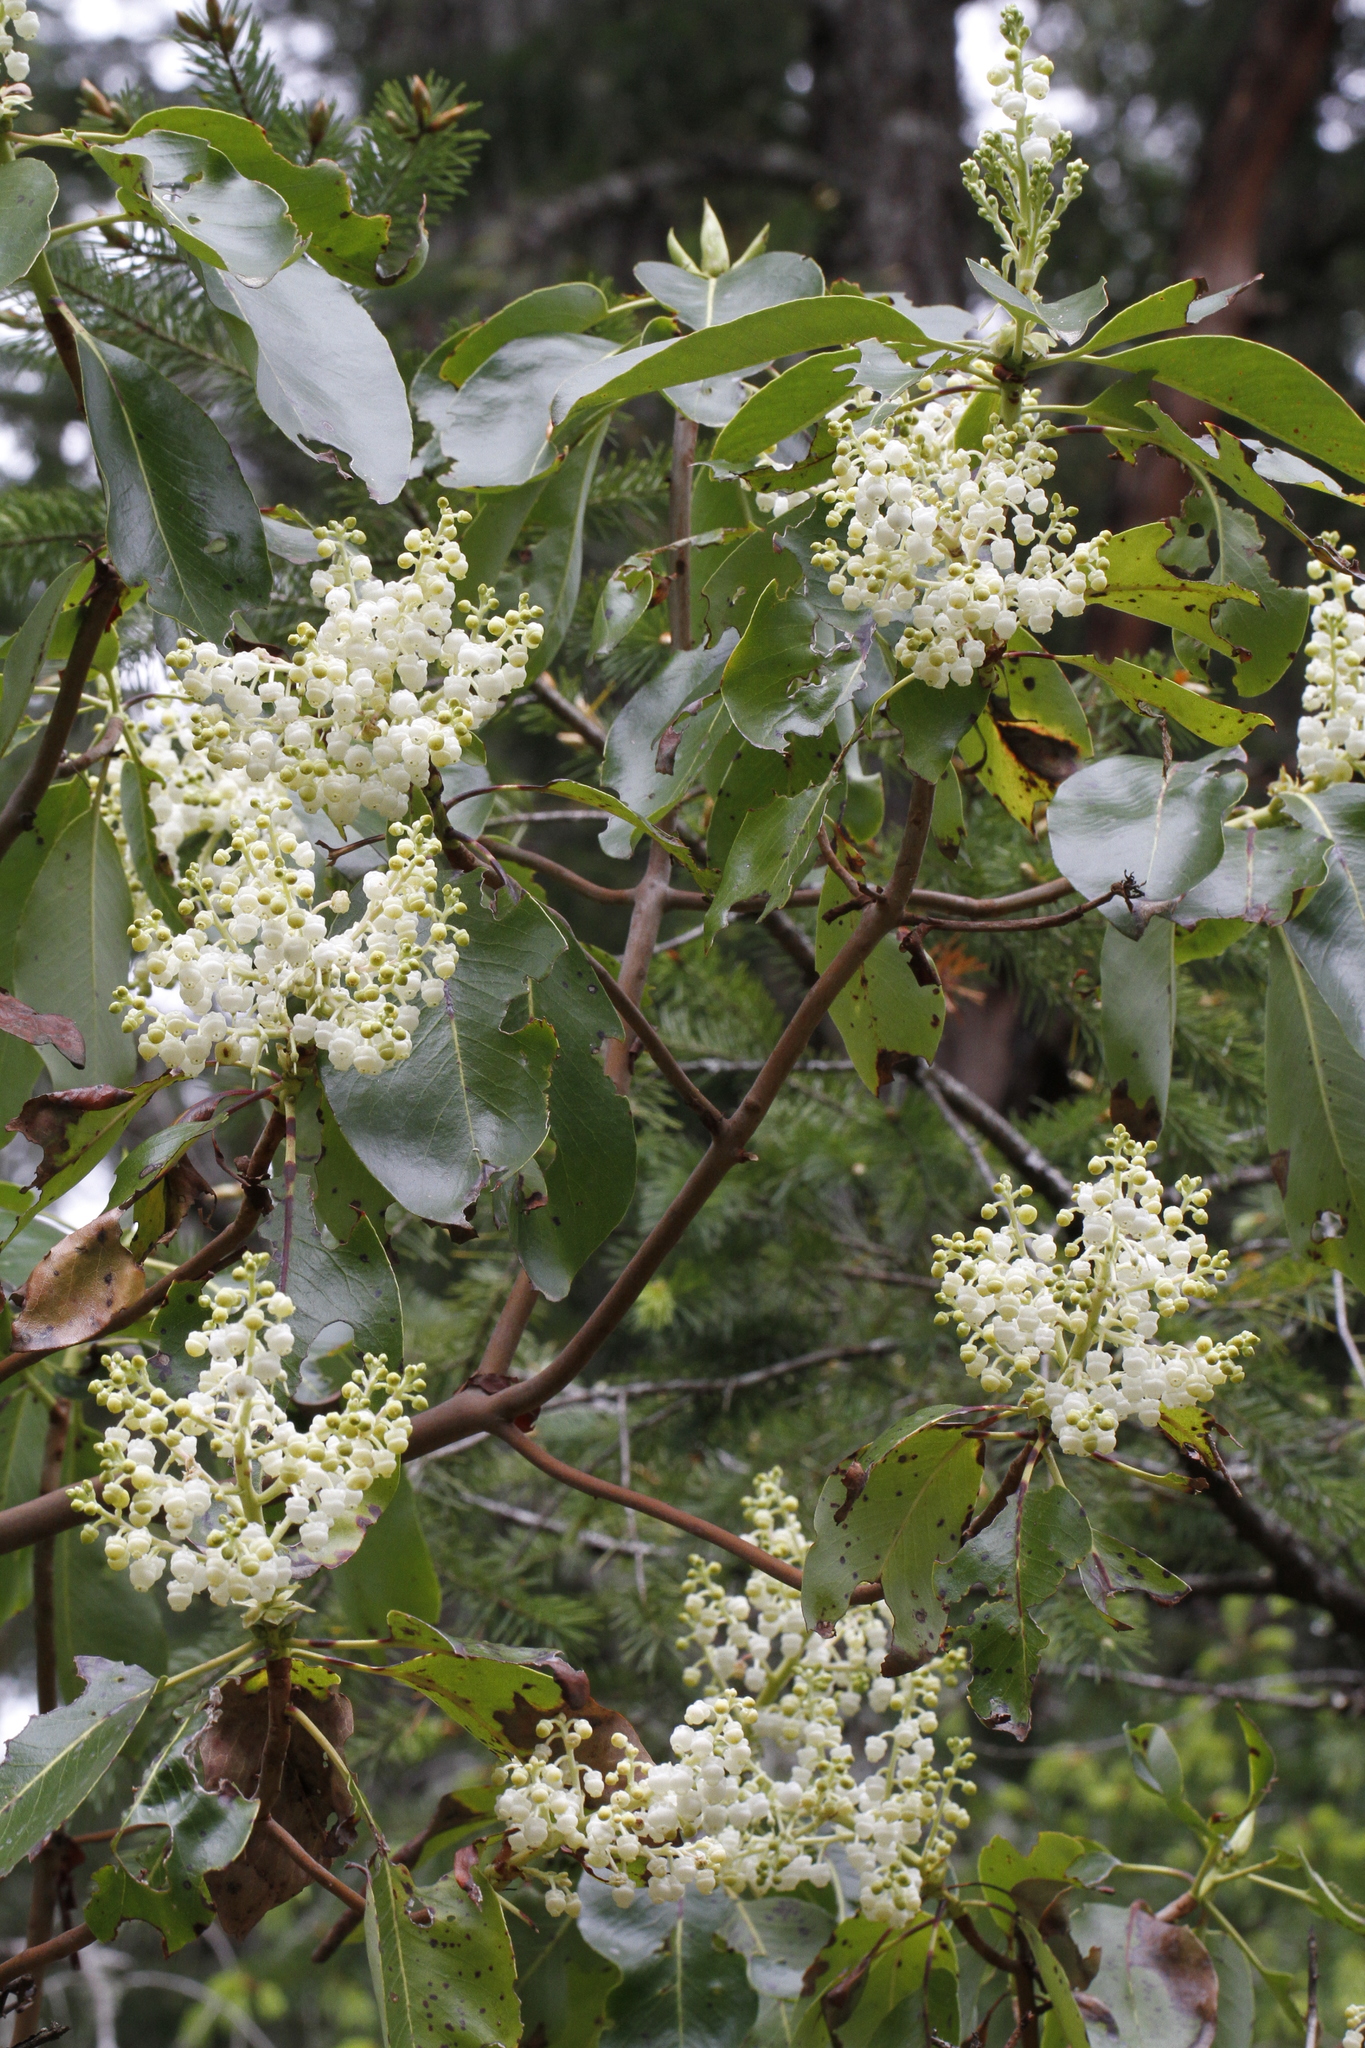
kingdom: Plantae
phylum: Tracheophyta
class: Magnoliopsida
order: Ericales
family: Ericaceae
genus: Arbutus
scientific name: Arbutus menziesii
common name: Pacific madrone
